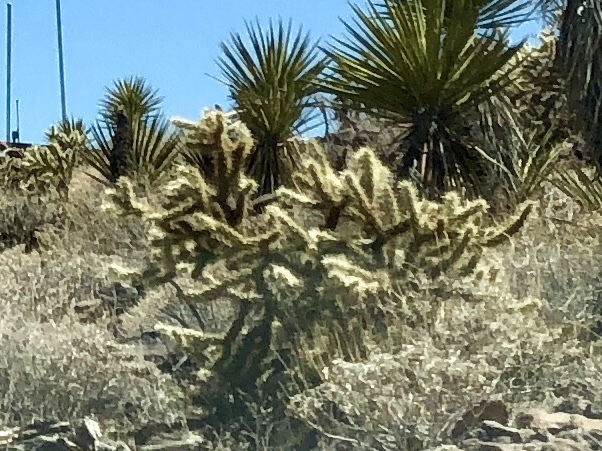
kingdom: Plantae
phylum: Tracheophyta
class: Magnoliopsida
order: Caryophyllales
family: Cactaceae
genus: Cylindropuntia
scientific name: Cylindropuntia acanthocarpa
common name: Buckhorn cholla
